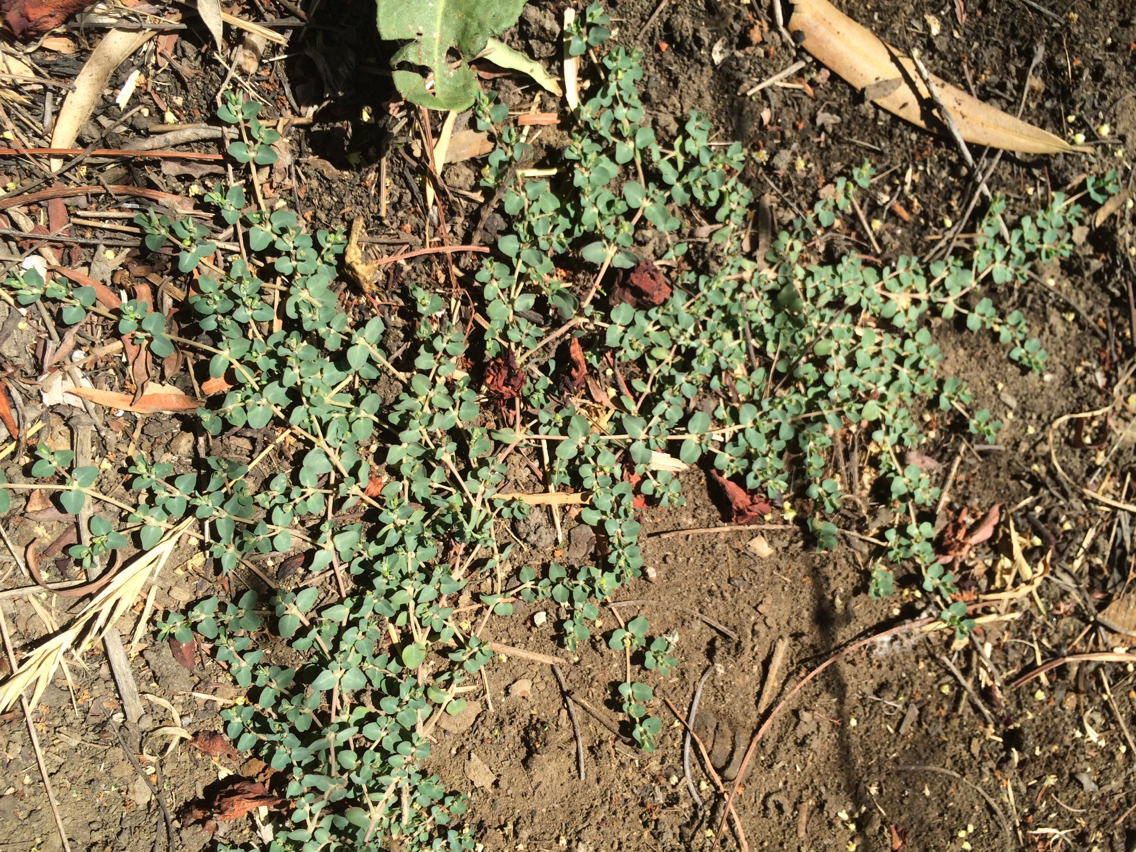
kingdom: Plantae
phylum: Tracheophyta
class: Magnoliopsida
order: Malpighiales
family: Euphorbiaceae
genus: Euphorbia
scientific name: Euphorbia serpens
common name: Matted sandmat
